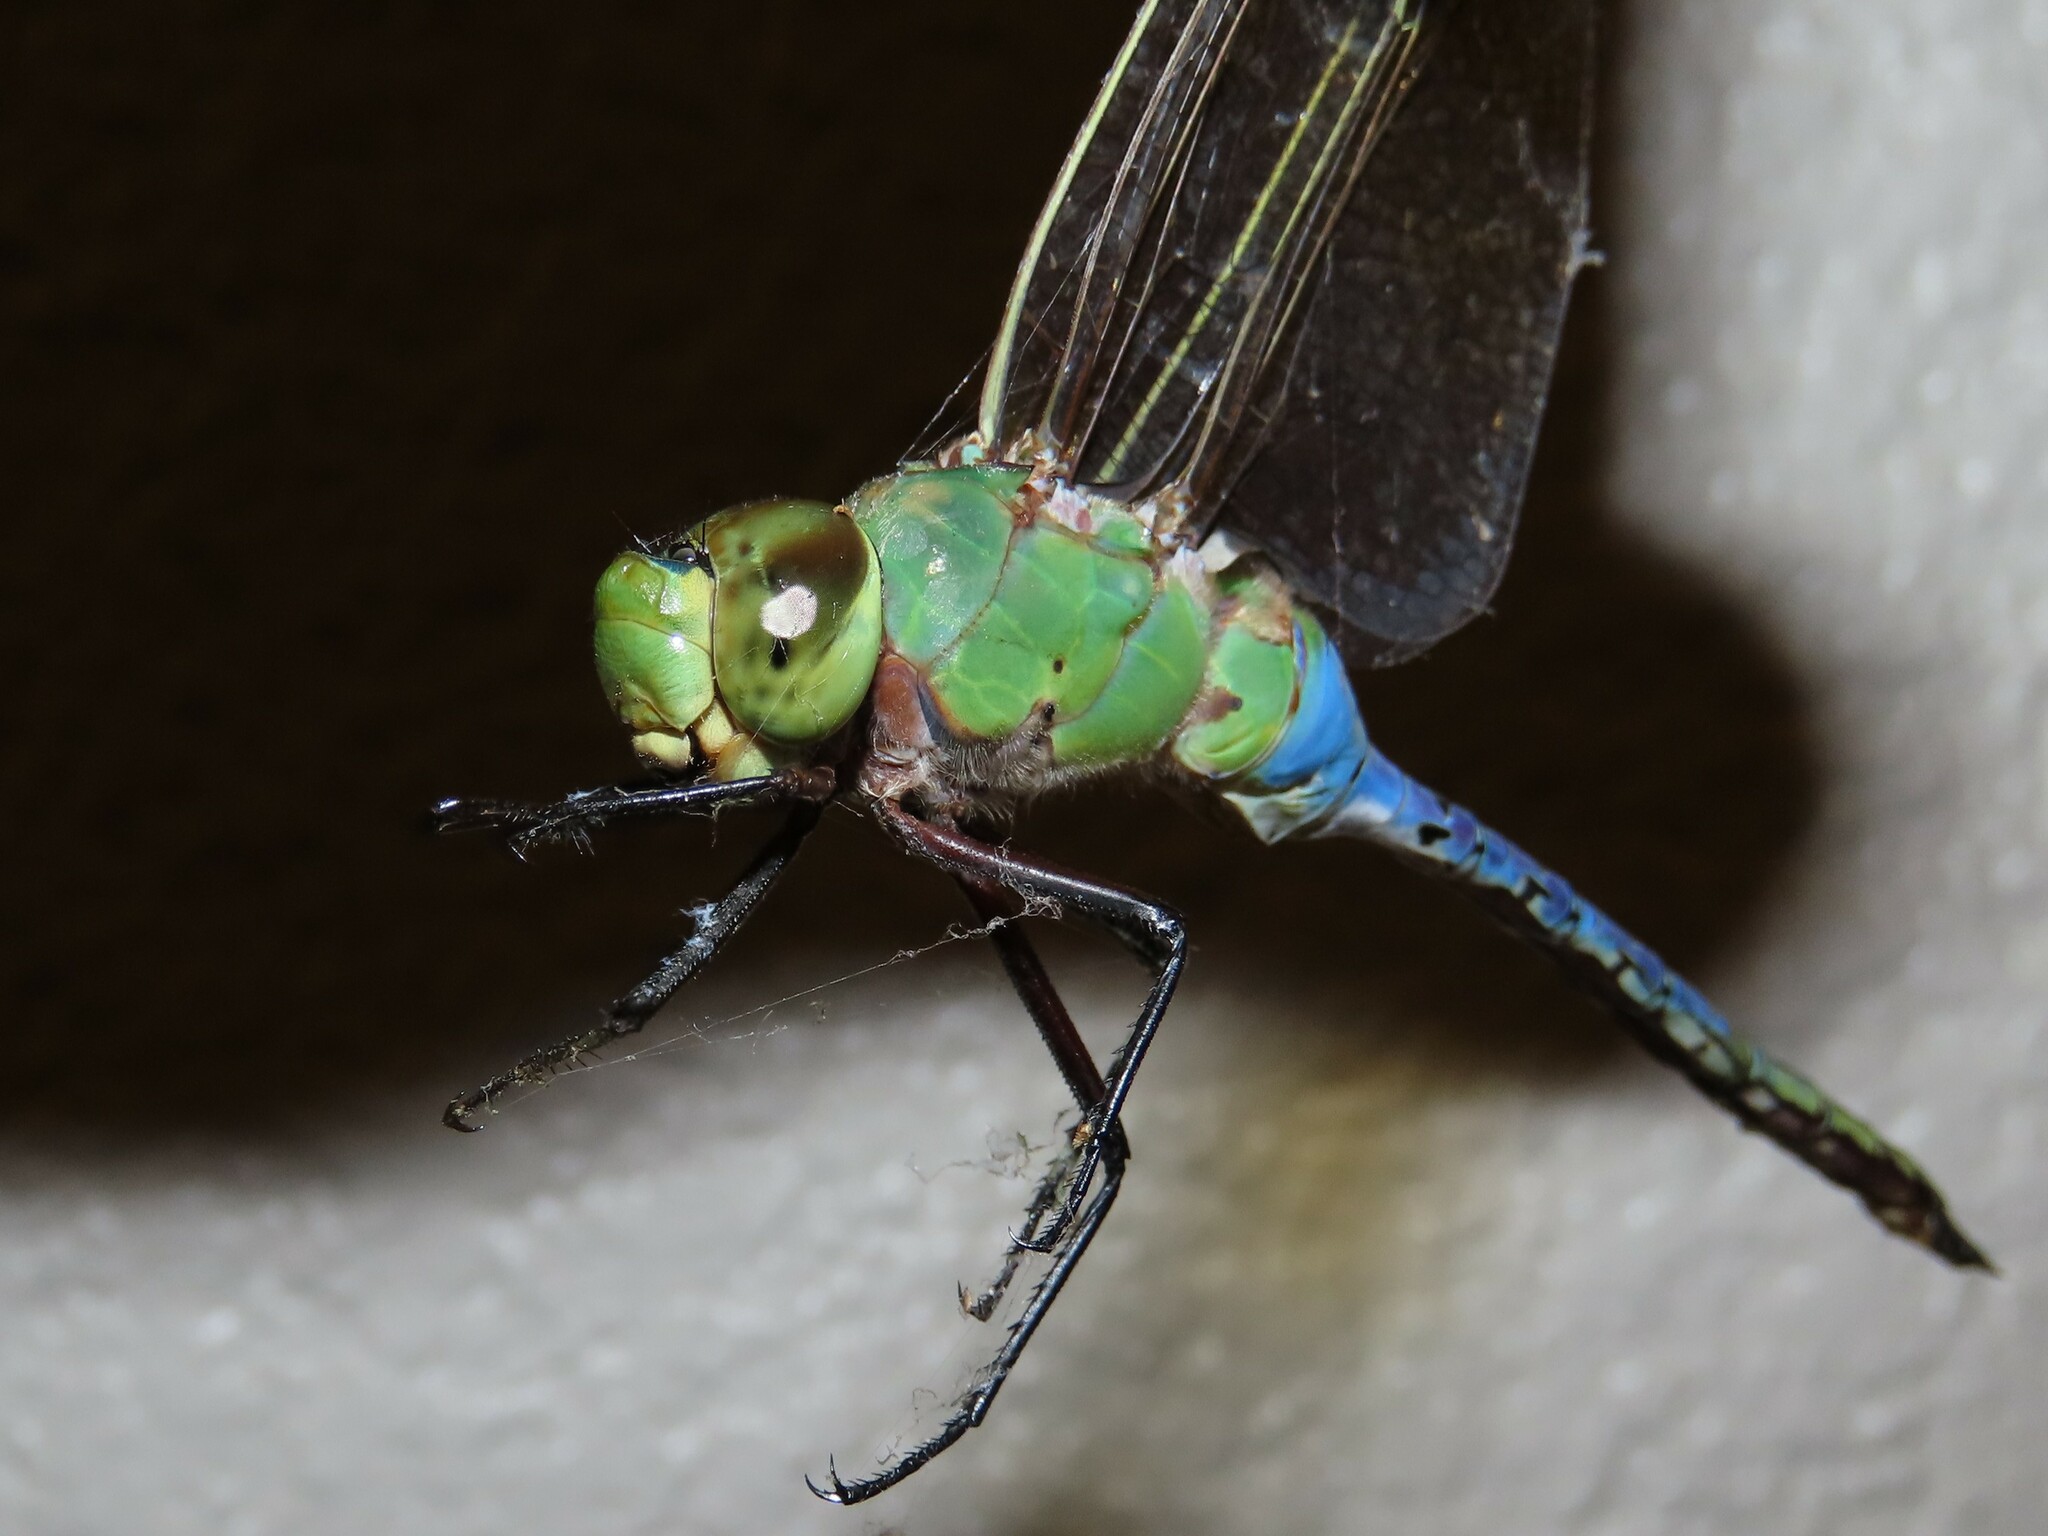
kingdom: Animalia
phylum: Arthropoda
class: Insecta
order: Odonata
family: Aeshnidae
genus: Anax
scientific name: Anax junius
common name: Common green darner
